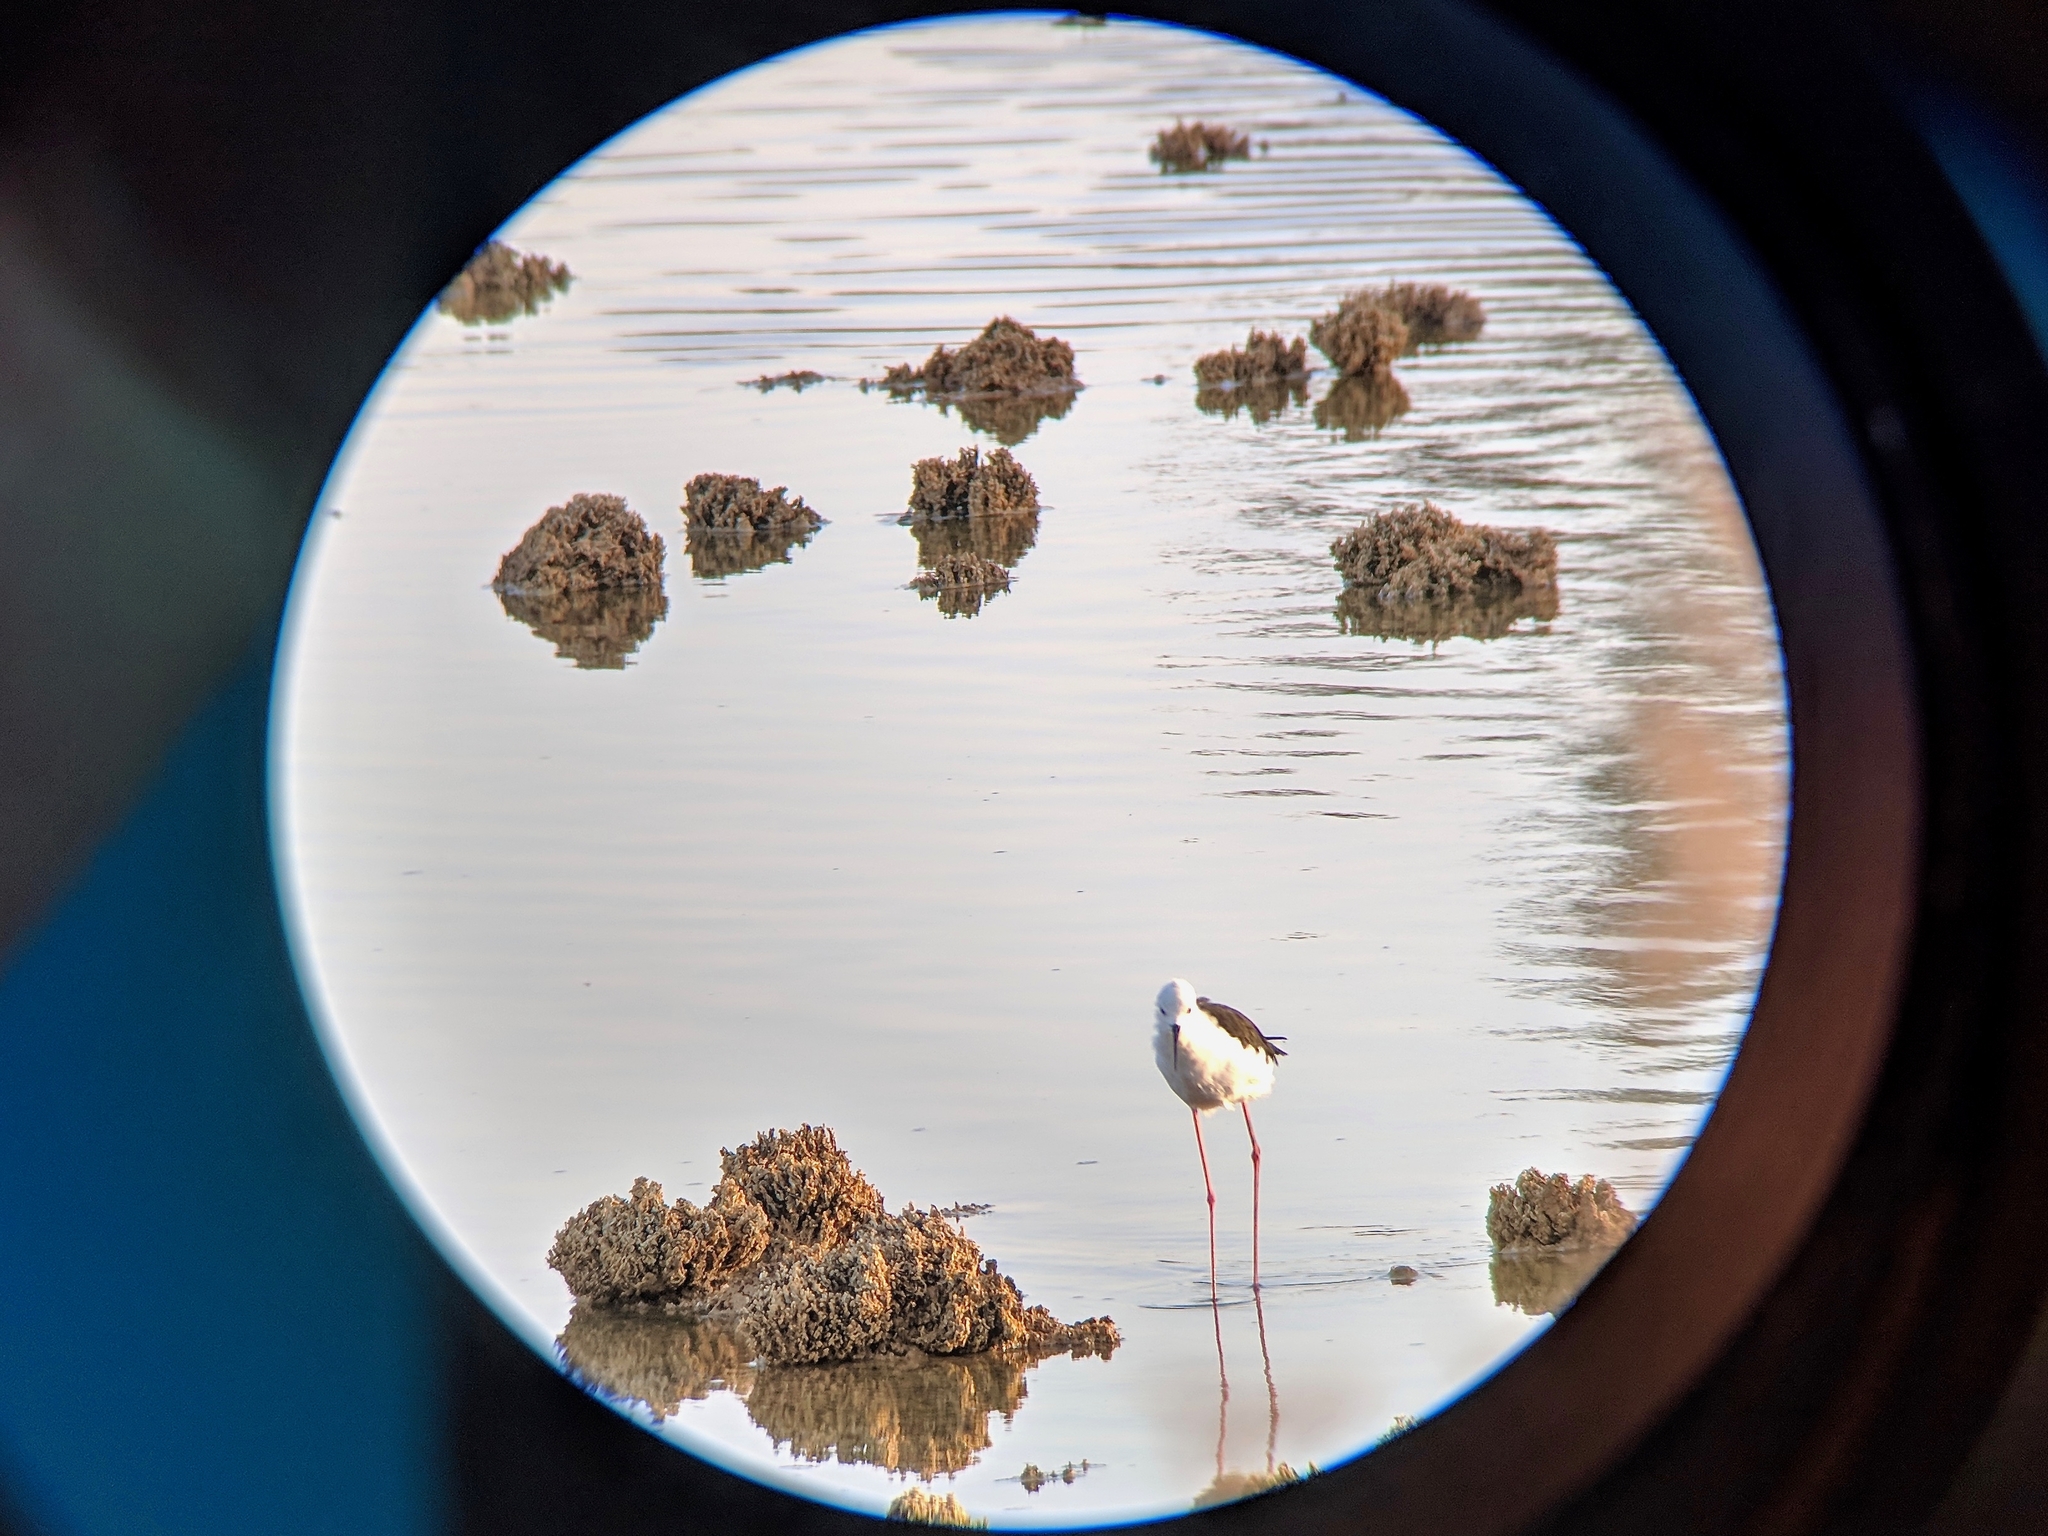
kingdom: Animalia
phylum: Chordata
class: Aves
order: Charadriiformes
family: Recurvirostridae
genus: Himantopus
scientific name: Himantopus himantopus
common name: Black-winged stilt
